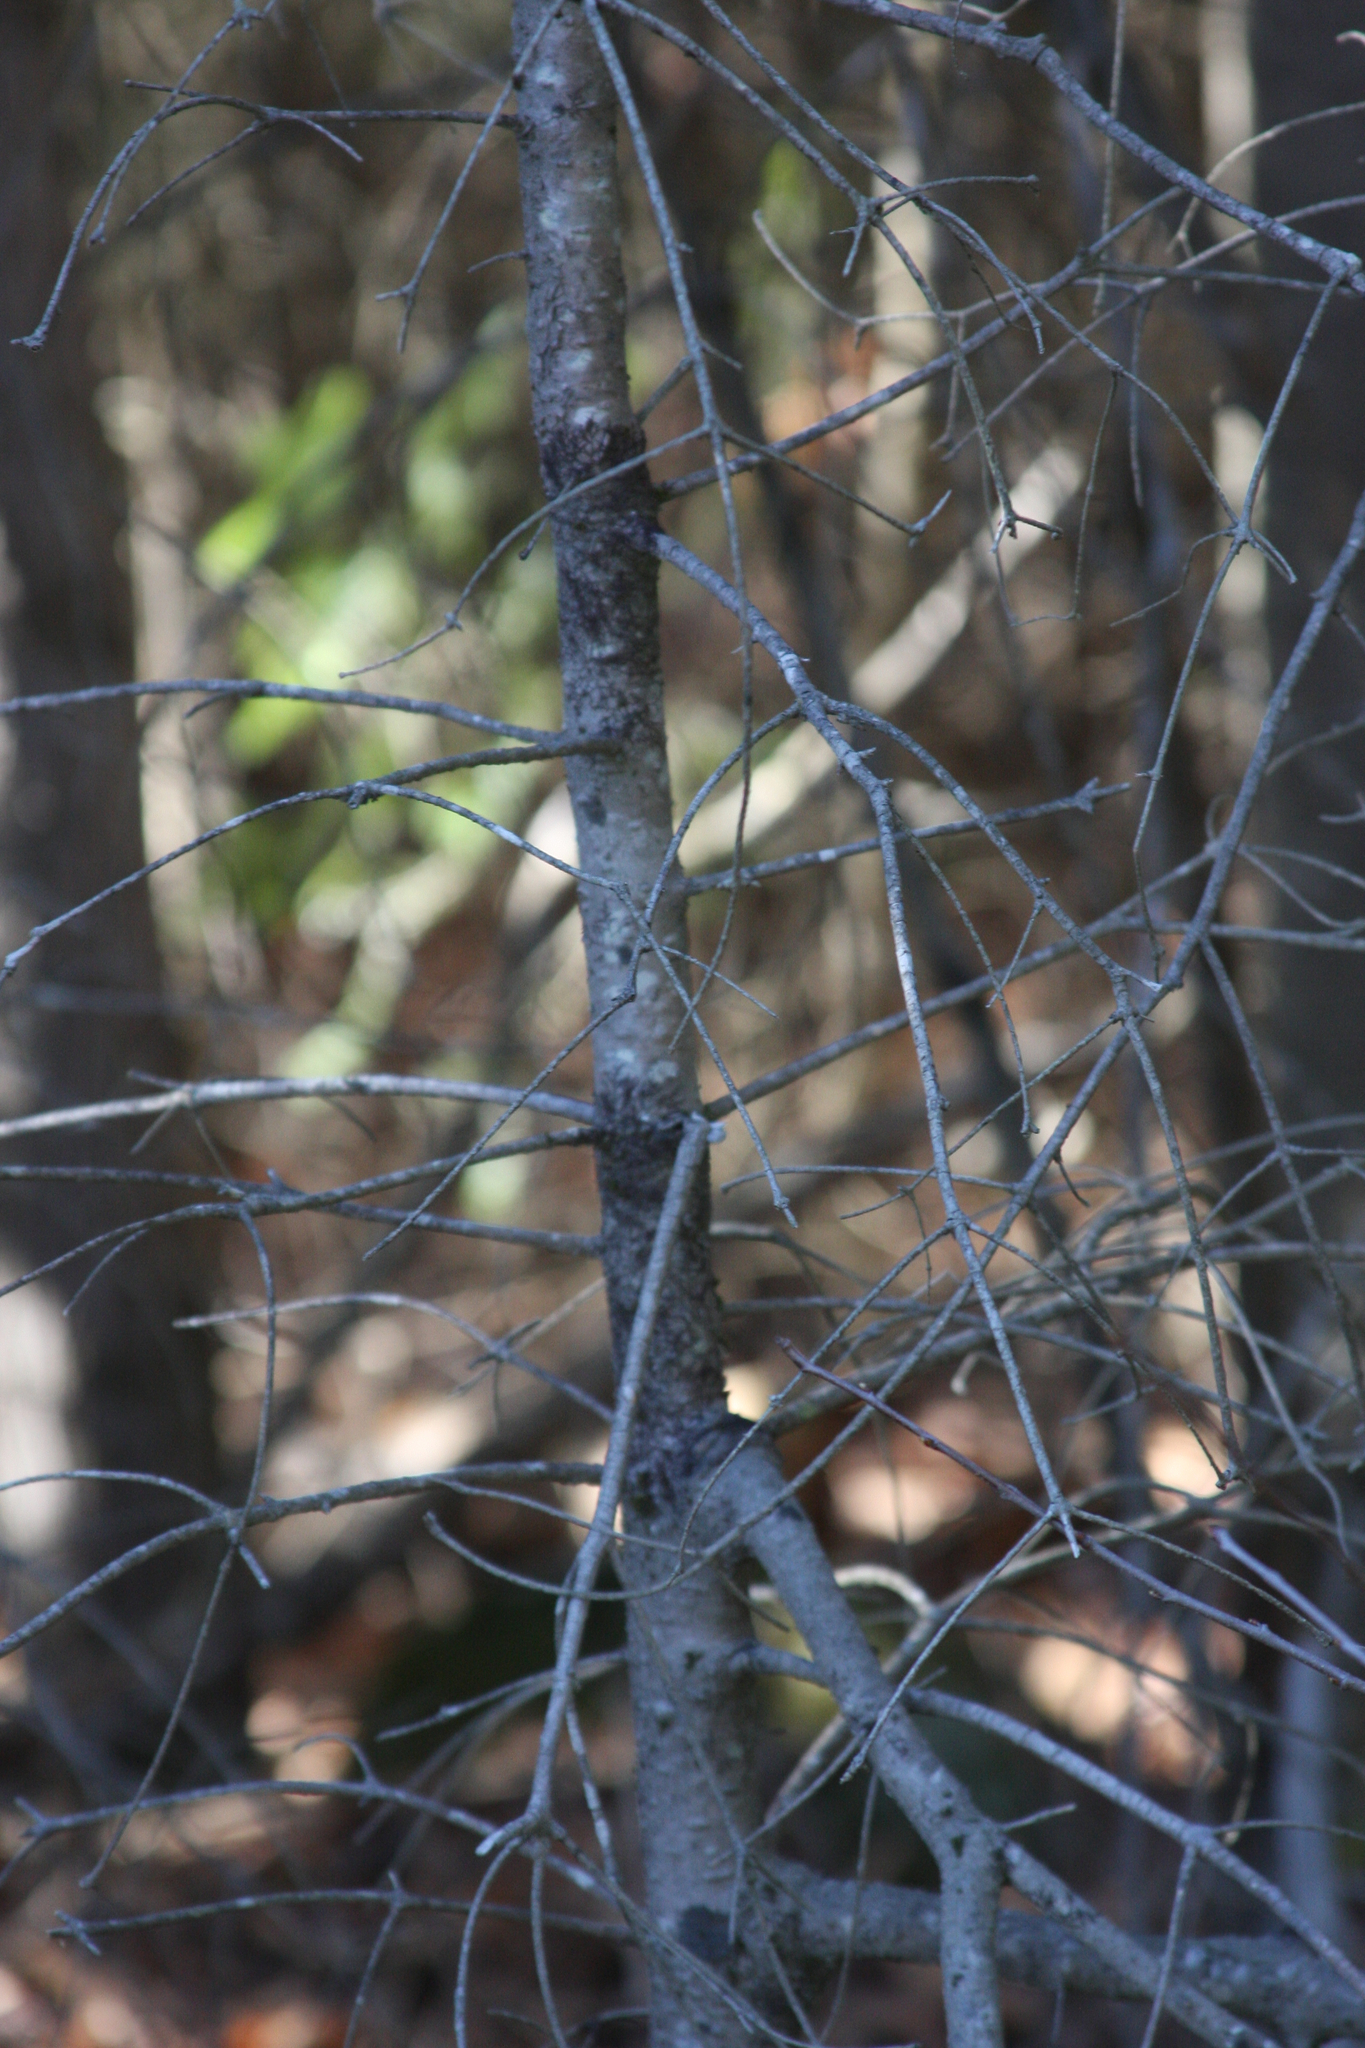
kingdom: Plantae
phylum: Tracheophyta
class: Pinopsida
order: Pinales
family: Pinaceae
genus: Abies
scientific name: Abies balsamea
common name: Balsam fir
